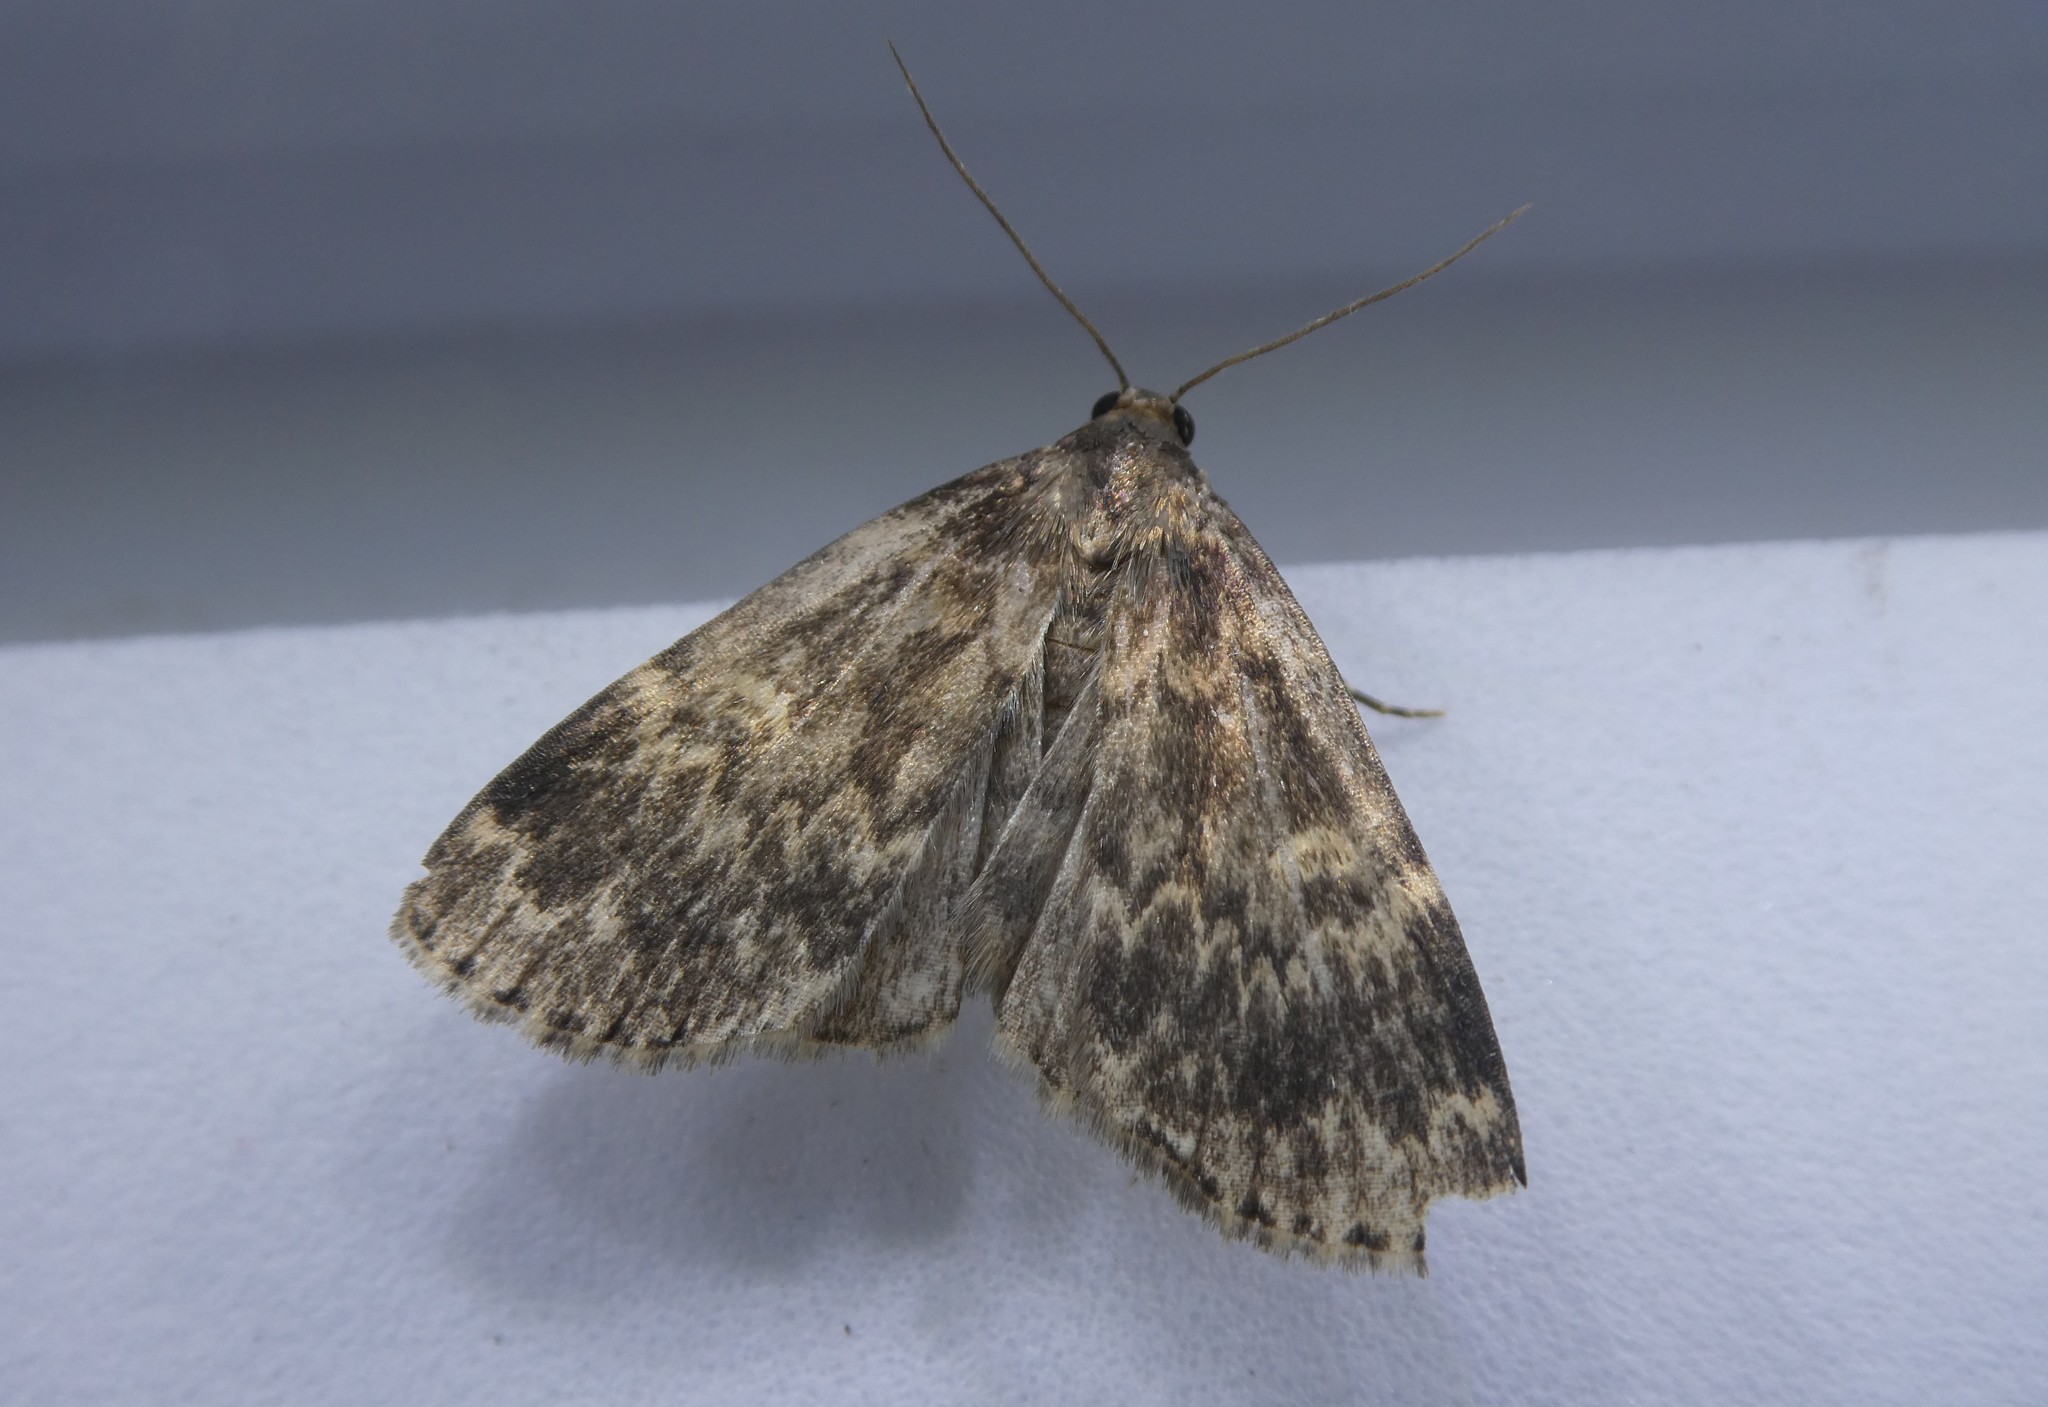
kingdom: Animalia
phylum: Arthropoda
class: Insecta
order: Lepidoptera
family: Erebidae
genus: Idia
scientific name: Idia lubricalis
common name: Twin-striped tabby
